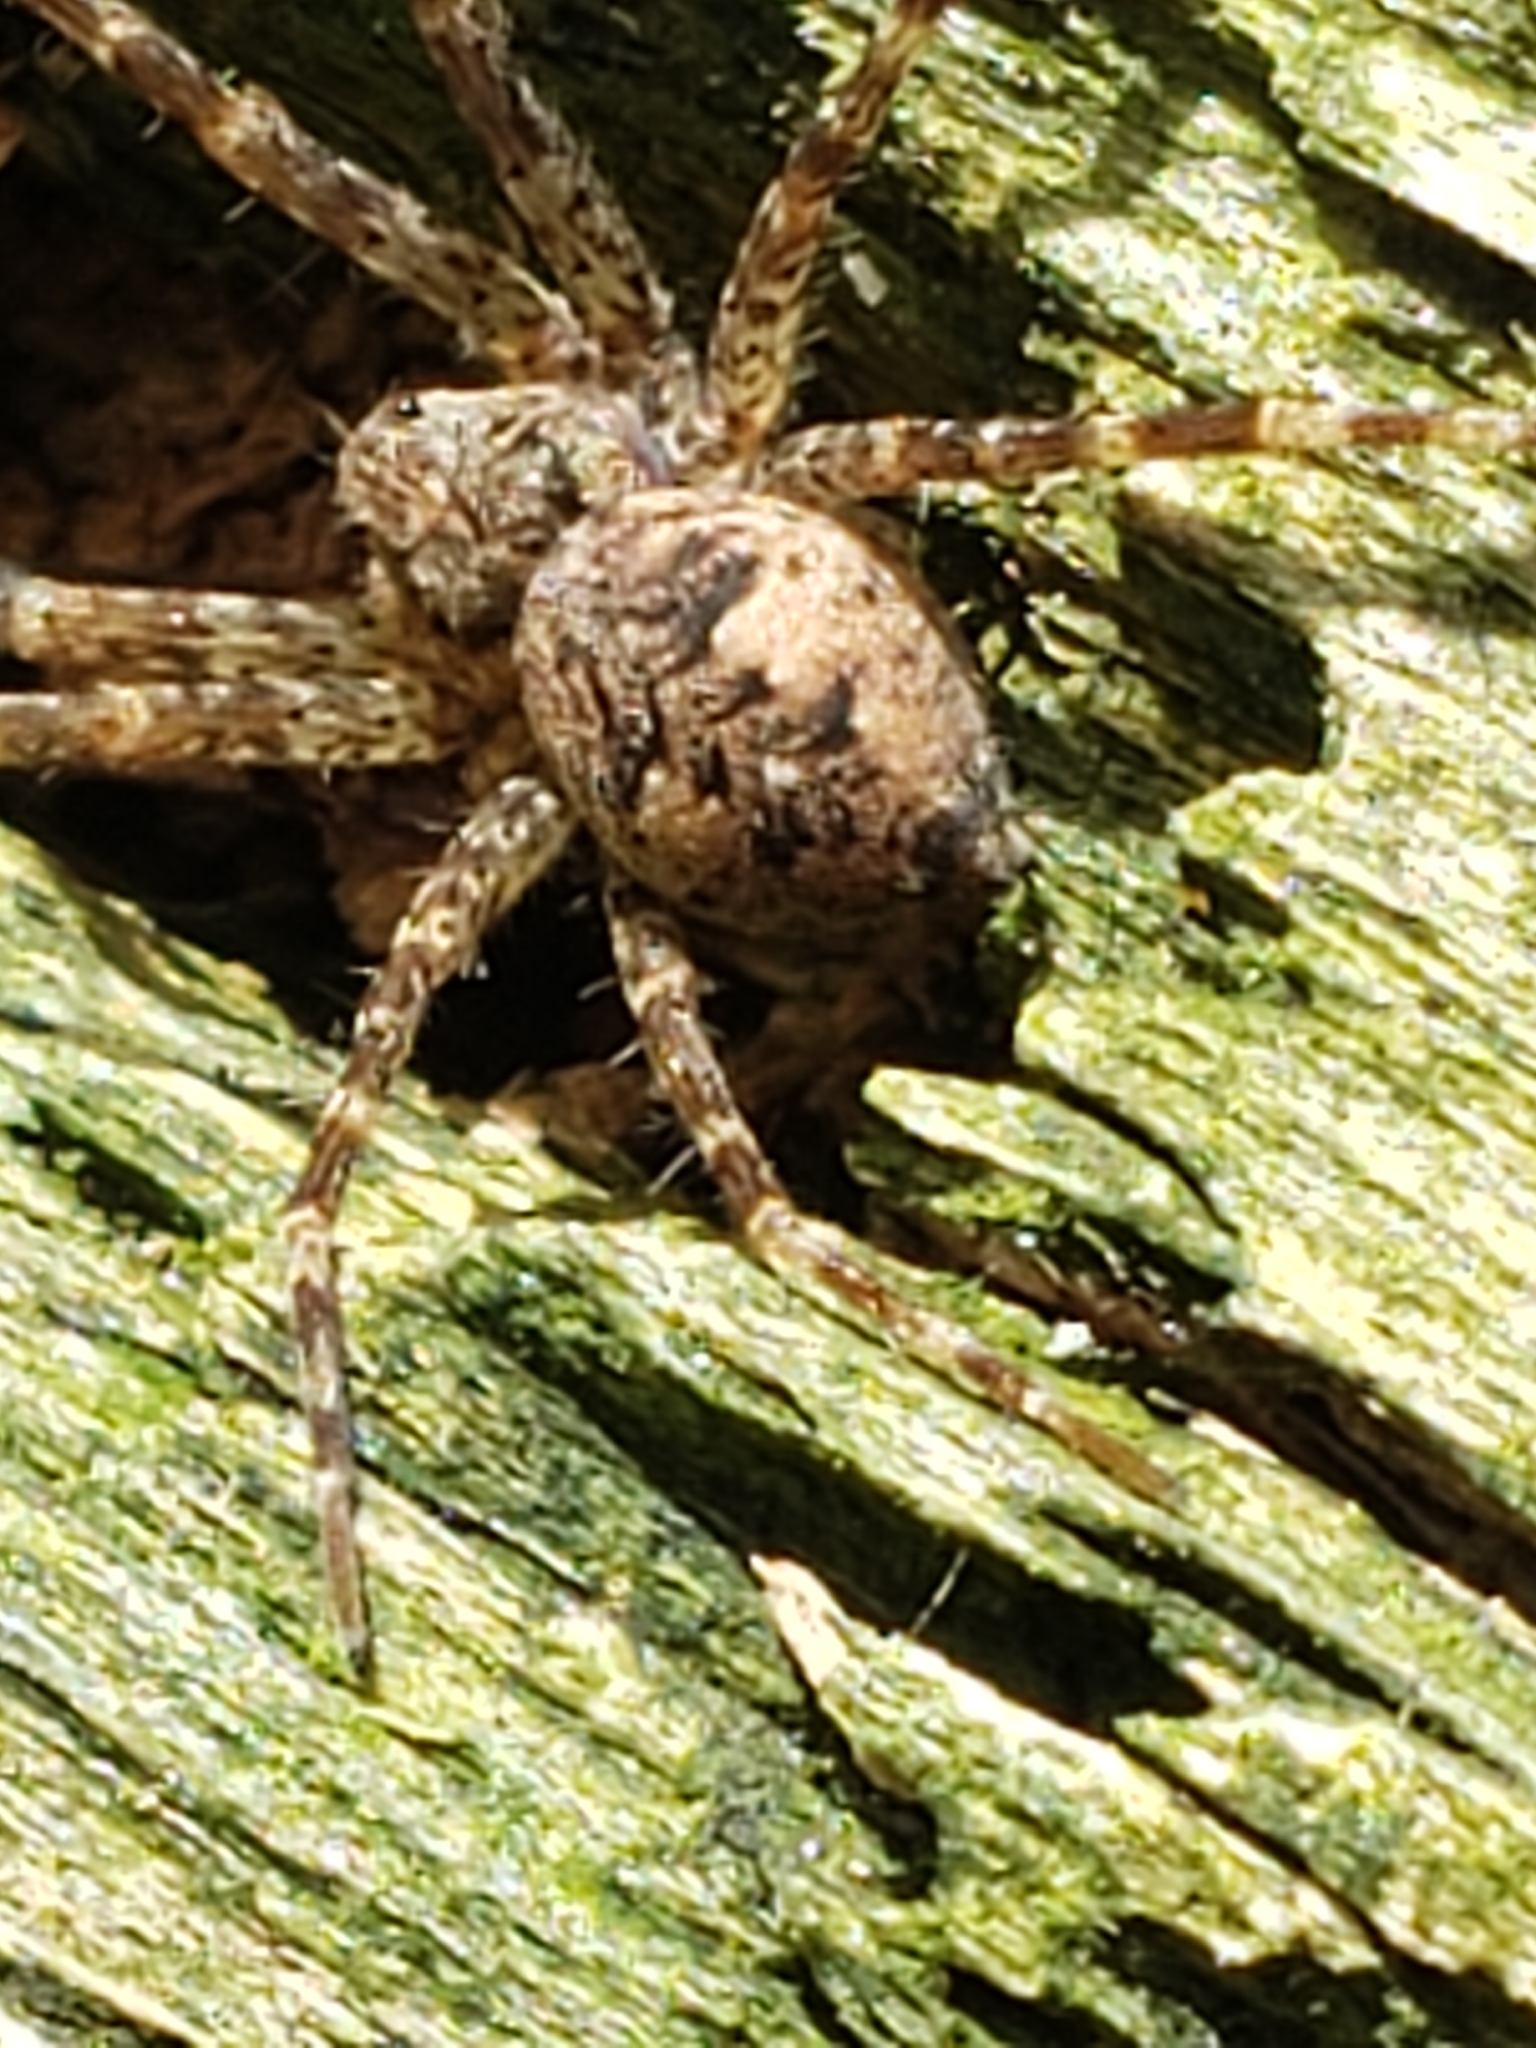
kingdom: Animalia
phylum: Arthropoda
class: Arachnida
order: Araneae
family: Pisauridae
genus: Dolomedes
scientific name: Dolomedes tenebrosus
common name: Dark fishing spider
